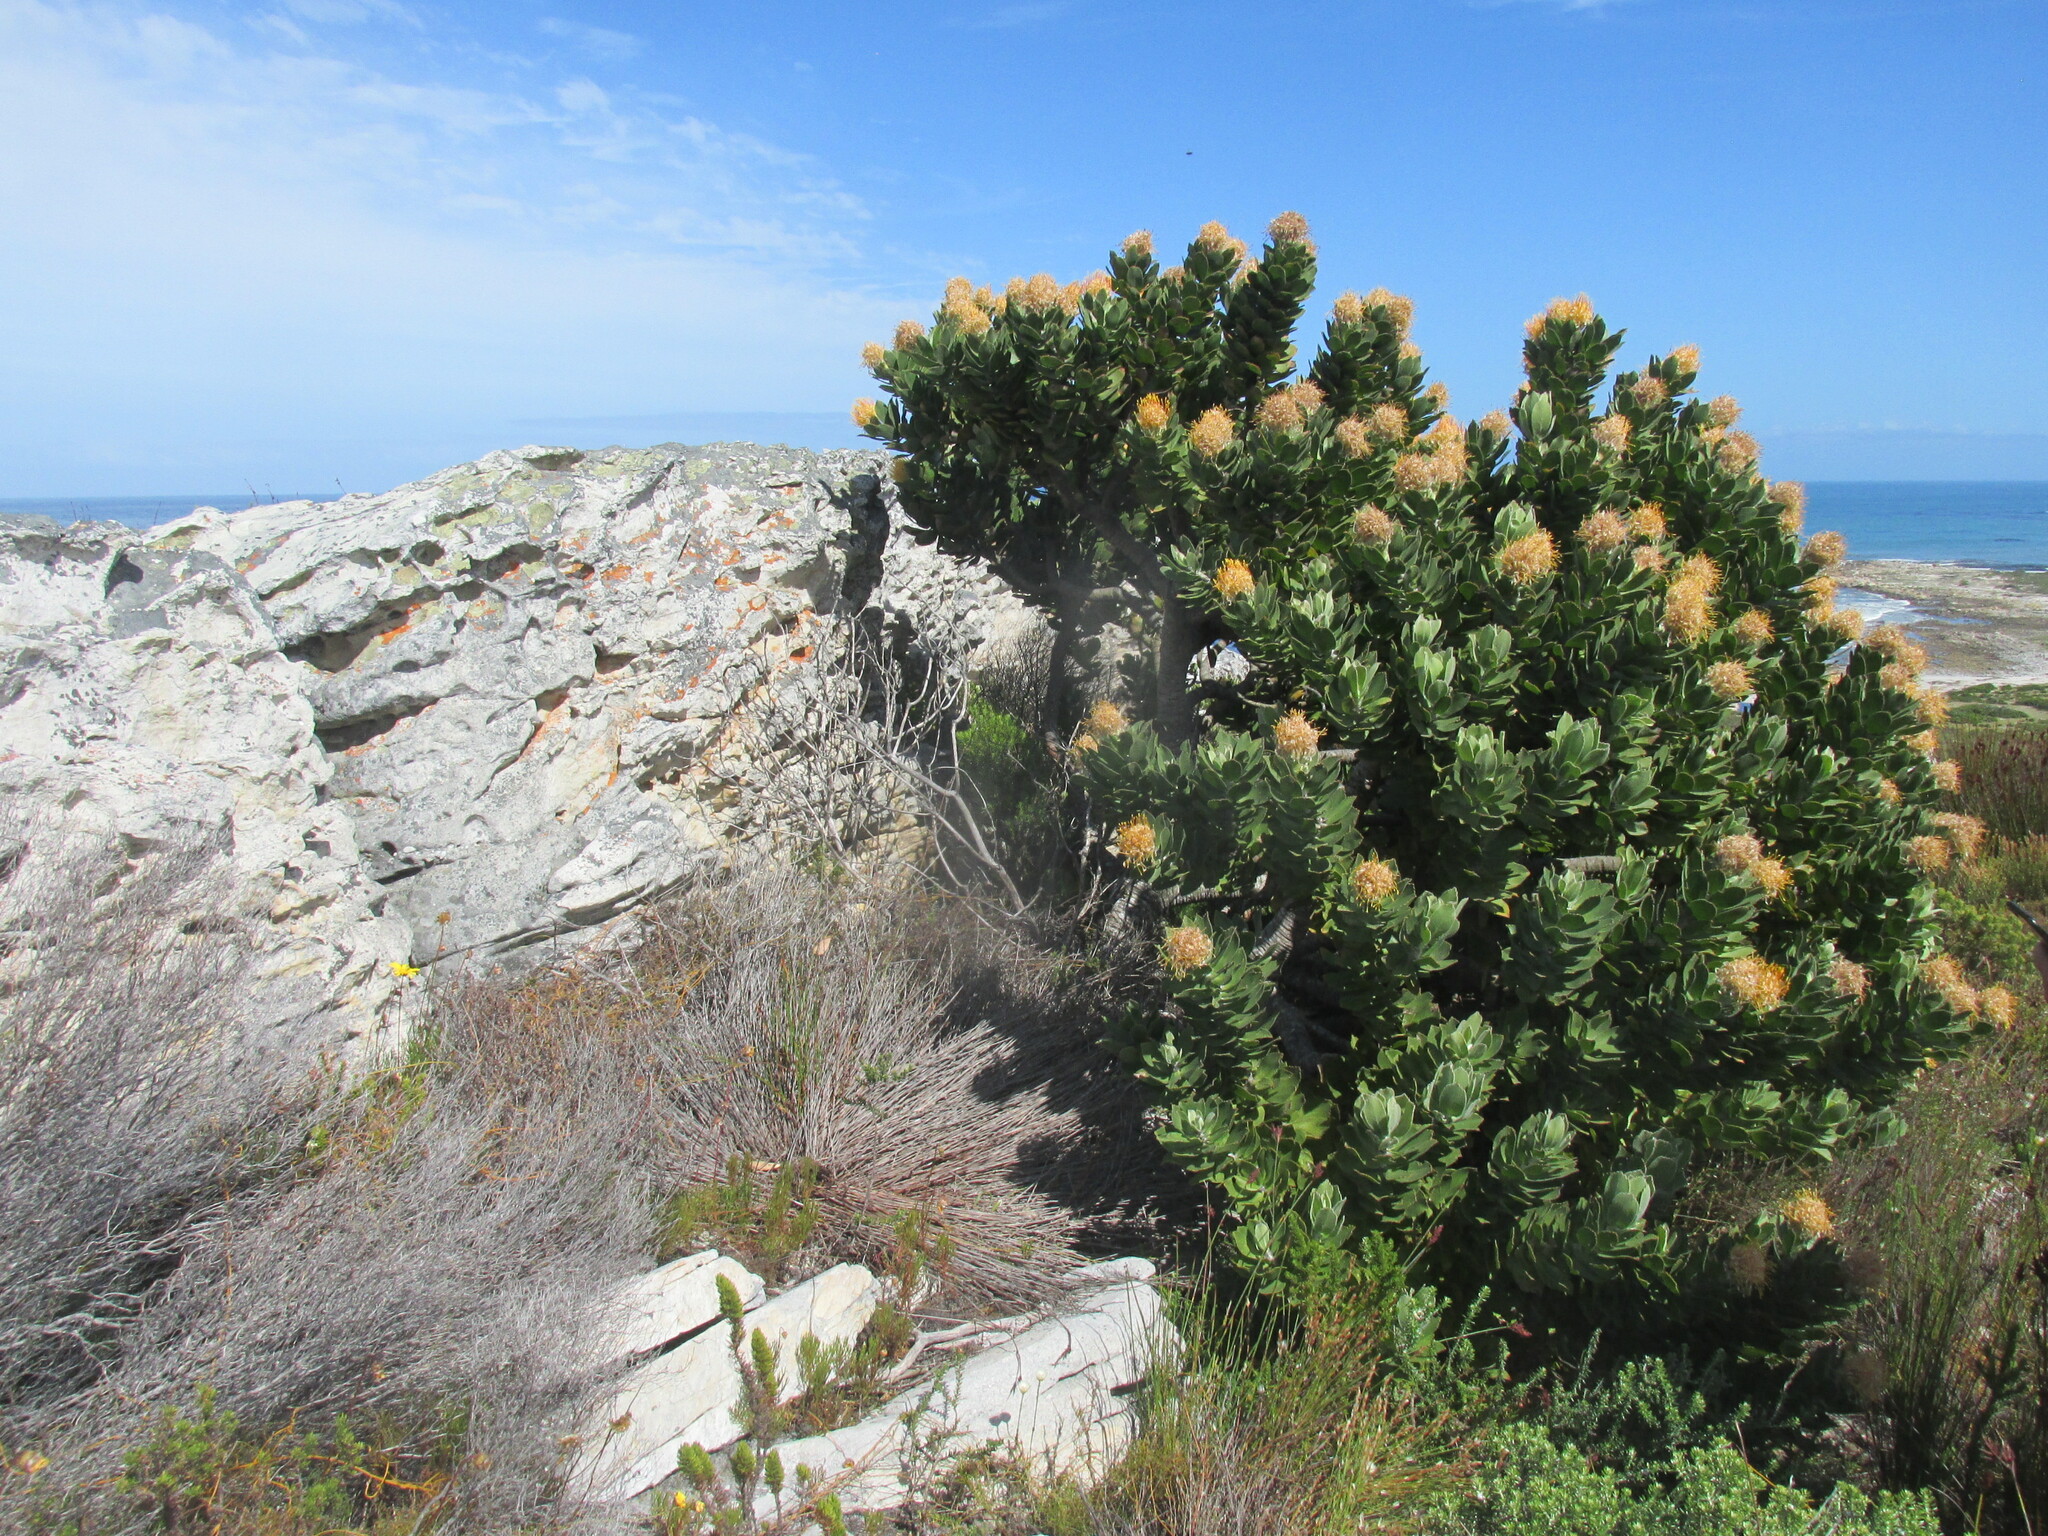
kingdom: Plantae
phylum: Tracheophyta
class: Magnoliopsida
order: Proteales
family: Proteaceae
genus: Leucospermum
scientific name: Leucospermum conocarpodendron
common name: Tree pincushion
